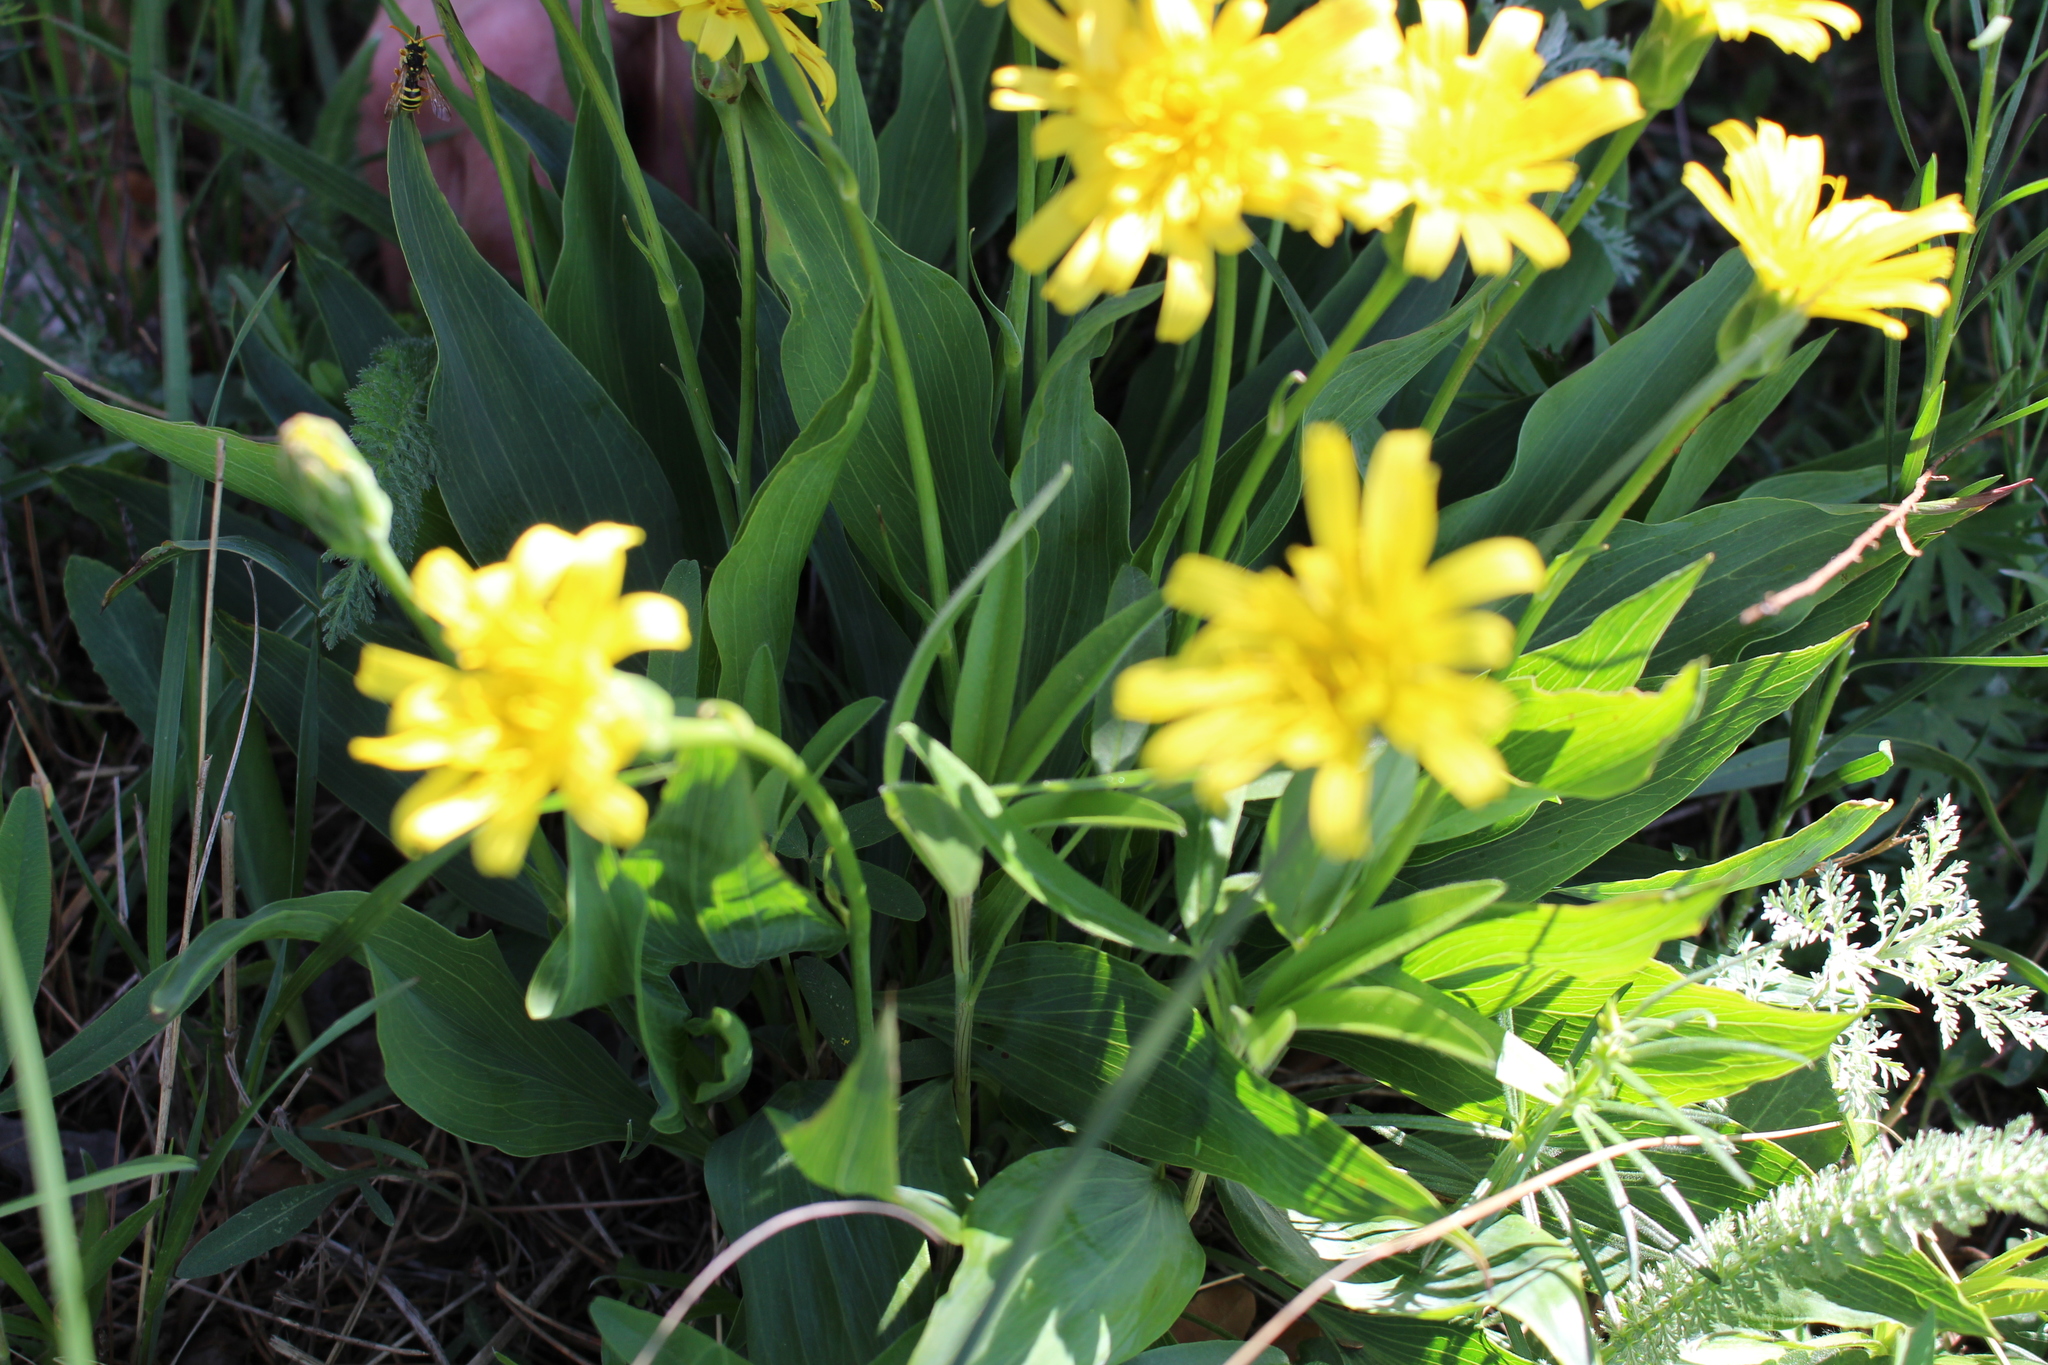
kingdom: Plantae
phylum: Tracheophyta
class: Magnoliopsida
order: Asterales
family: Asteraceae
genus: Takhtajaniantha
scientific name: Takhtajaniantha austriaca
